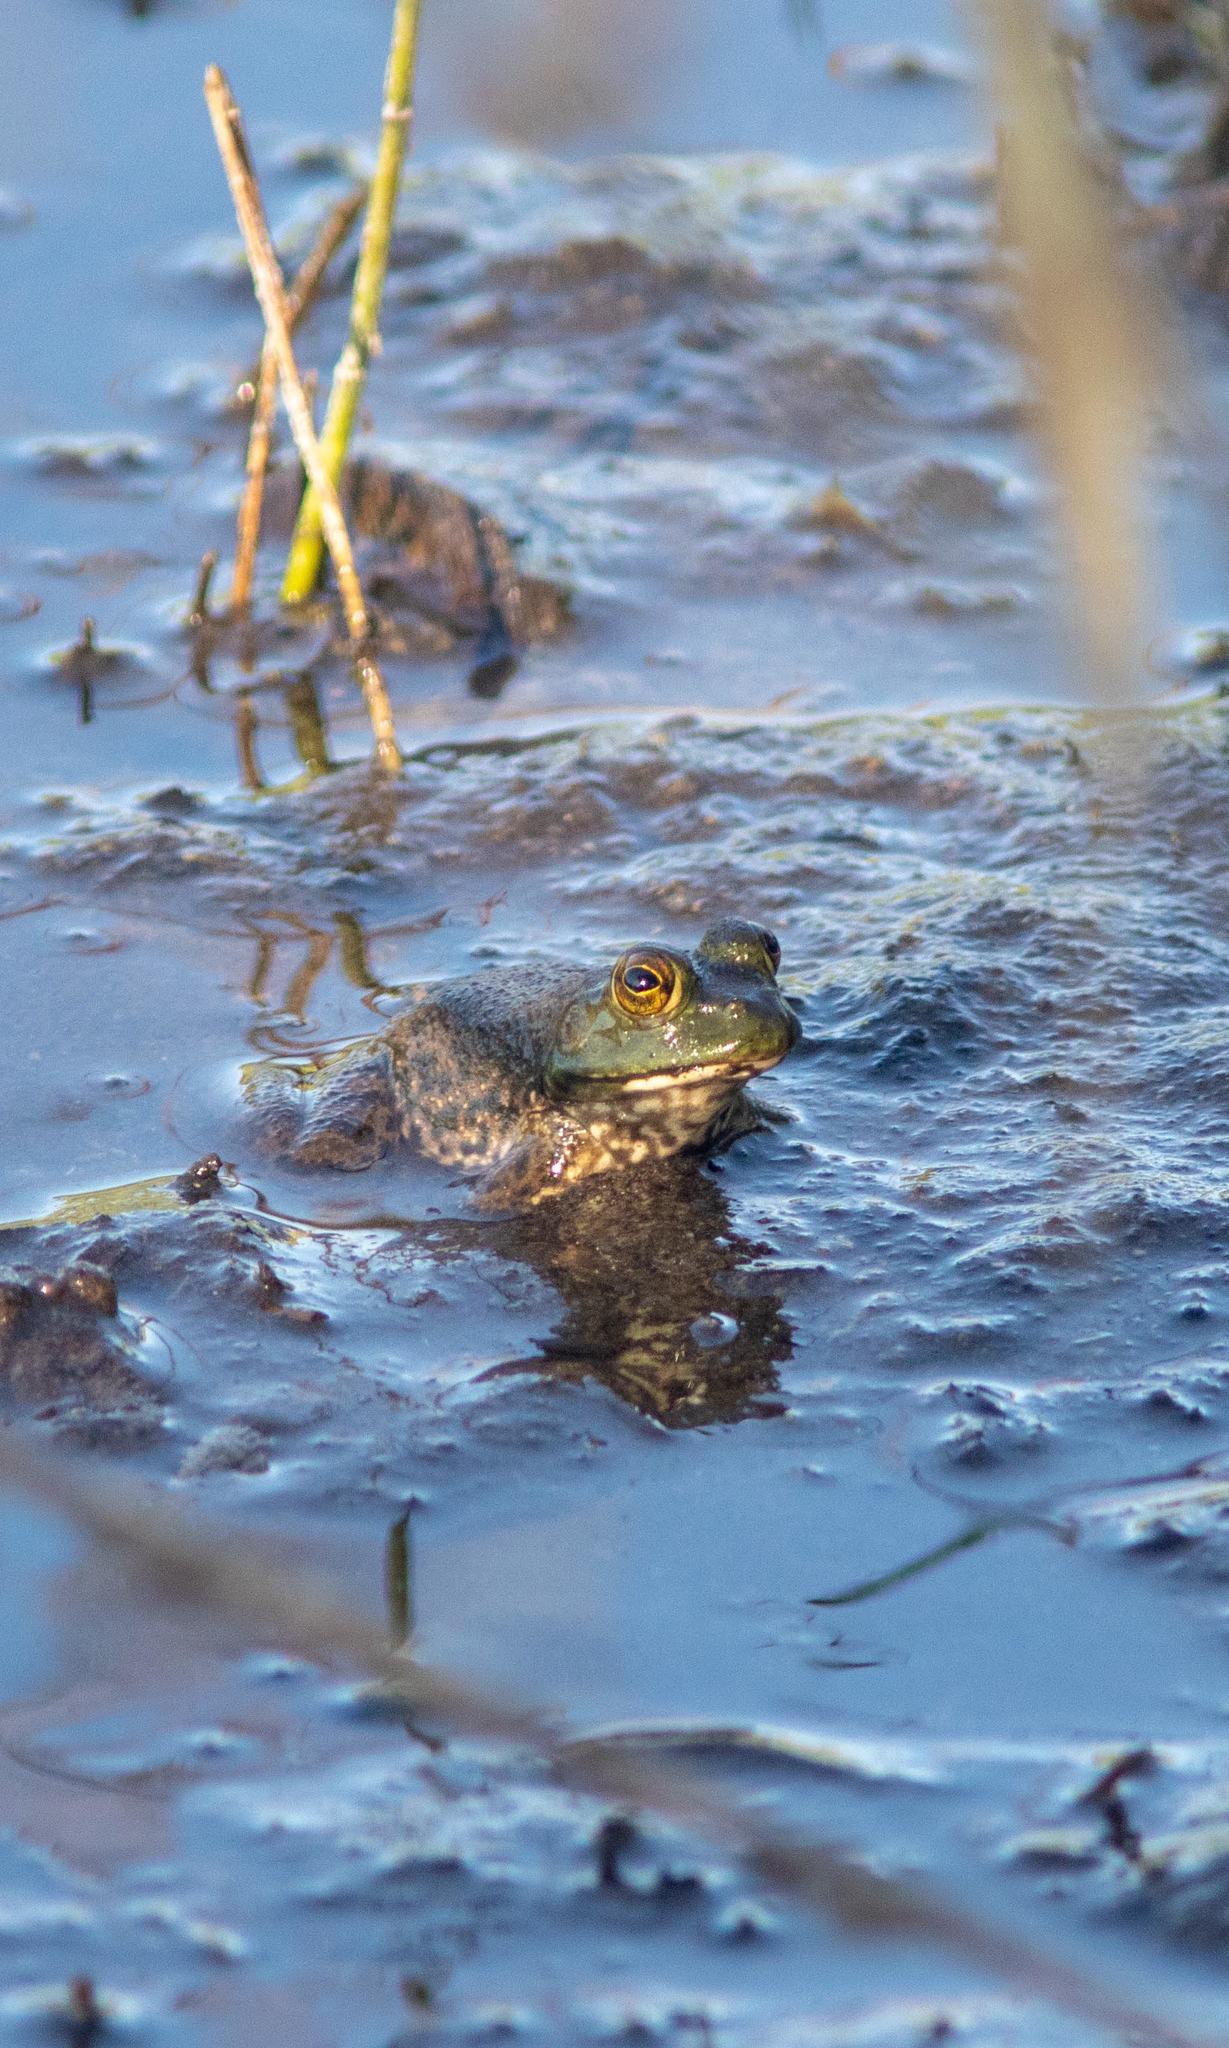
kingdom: Animalia
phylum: Chordata
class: Amphibia
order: Anura
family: Ranidae
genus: Lithobates
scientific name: Lithobates catesbeianus
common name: American bullfrog
